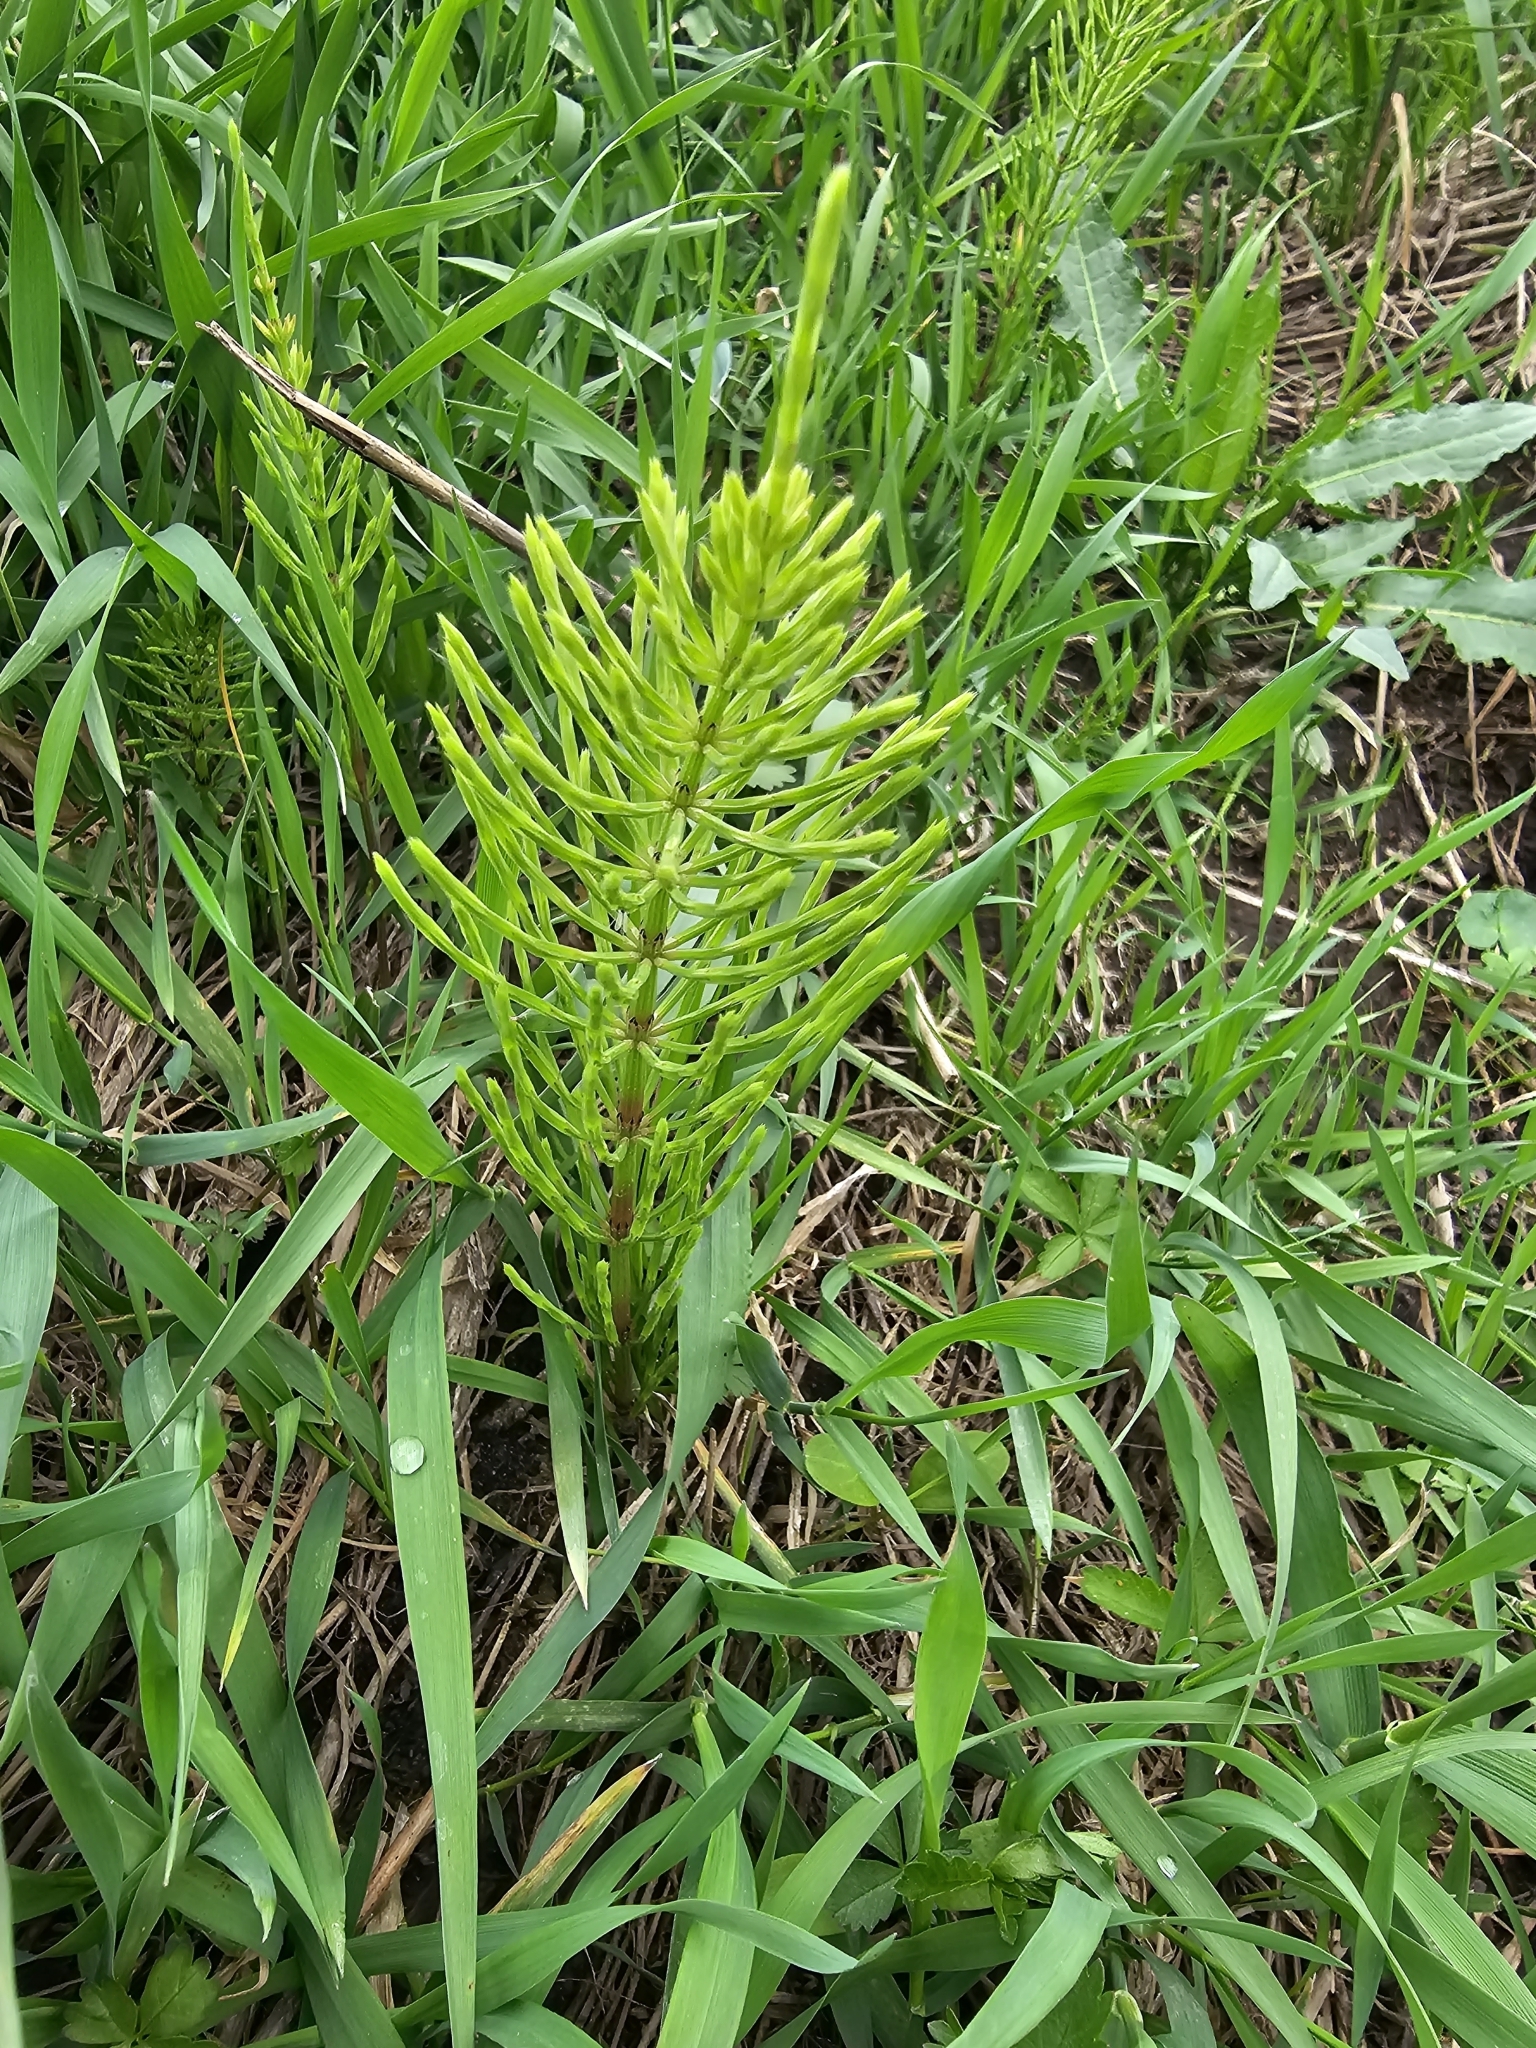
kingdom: Plantae
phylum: Tracheophyta
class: Polypodiopsida
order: Equisetales
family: Equisetaceae
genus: Equisetum
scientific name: Equisetum arvense
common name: Field horsetail
